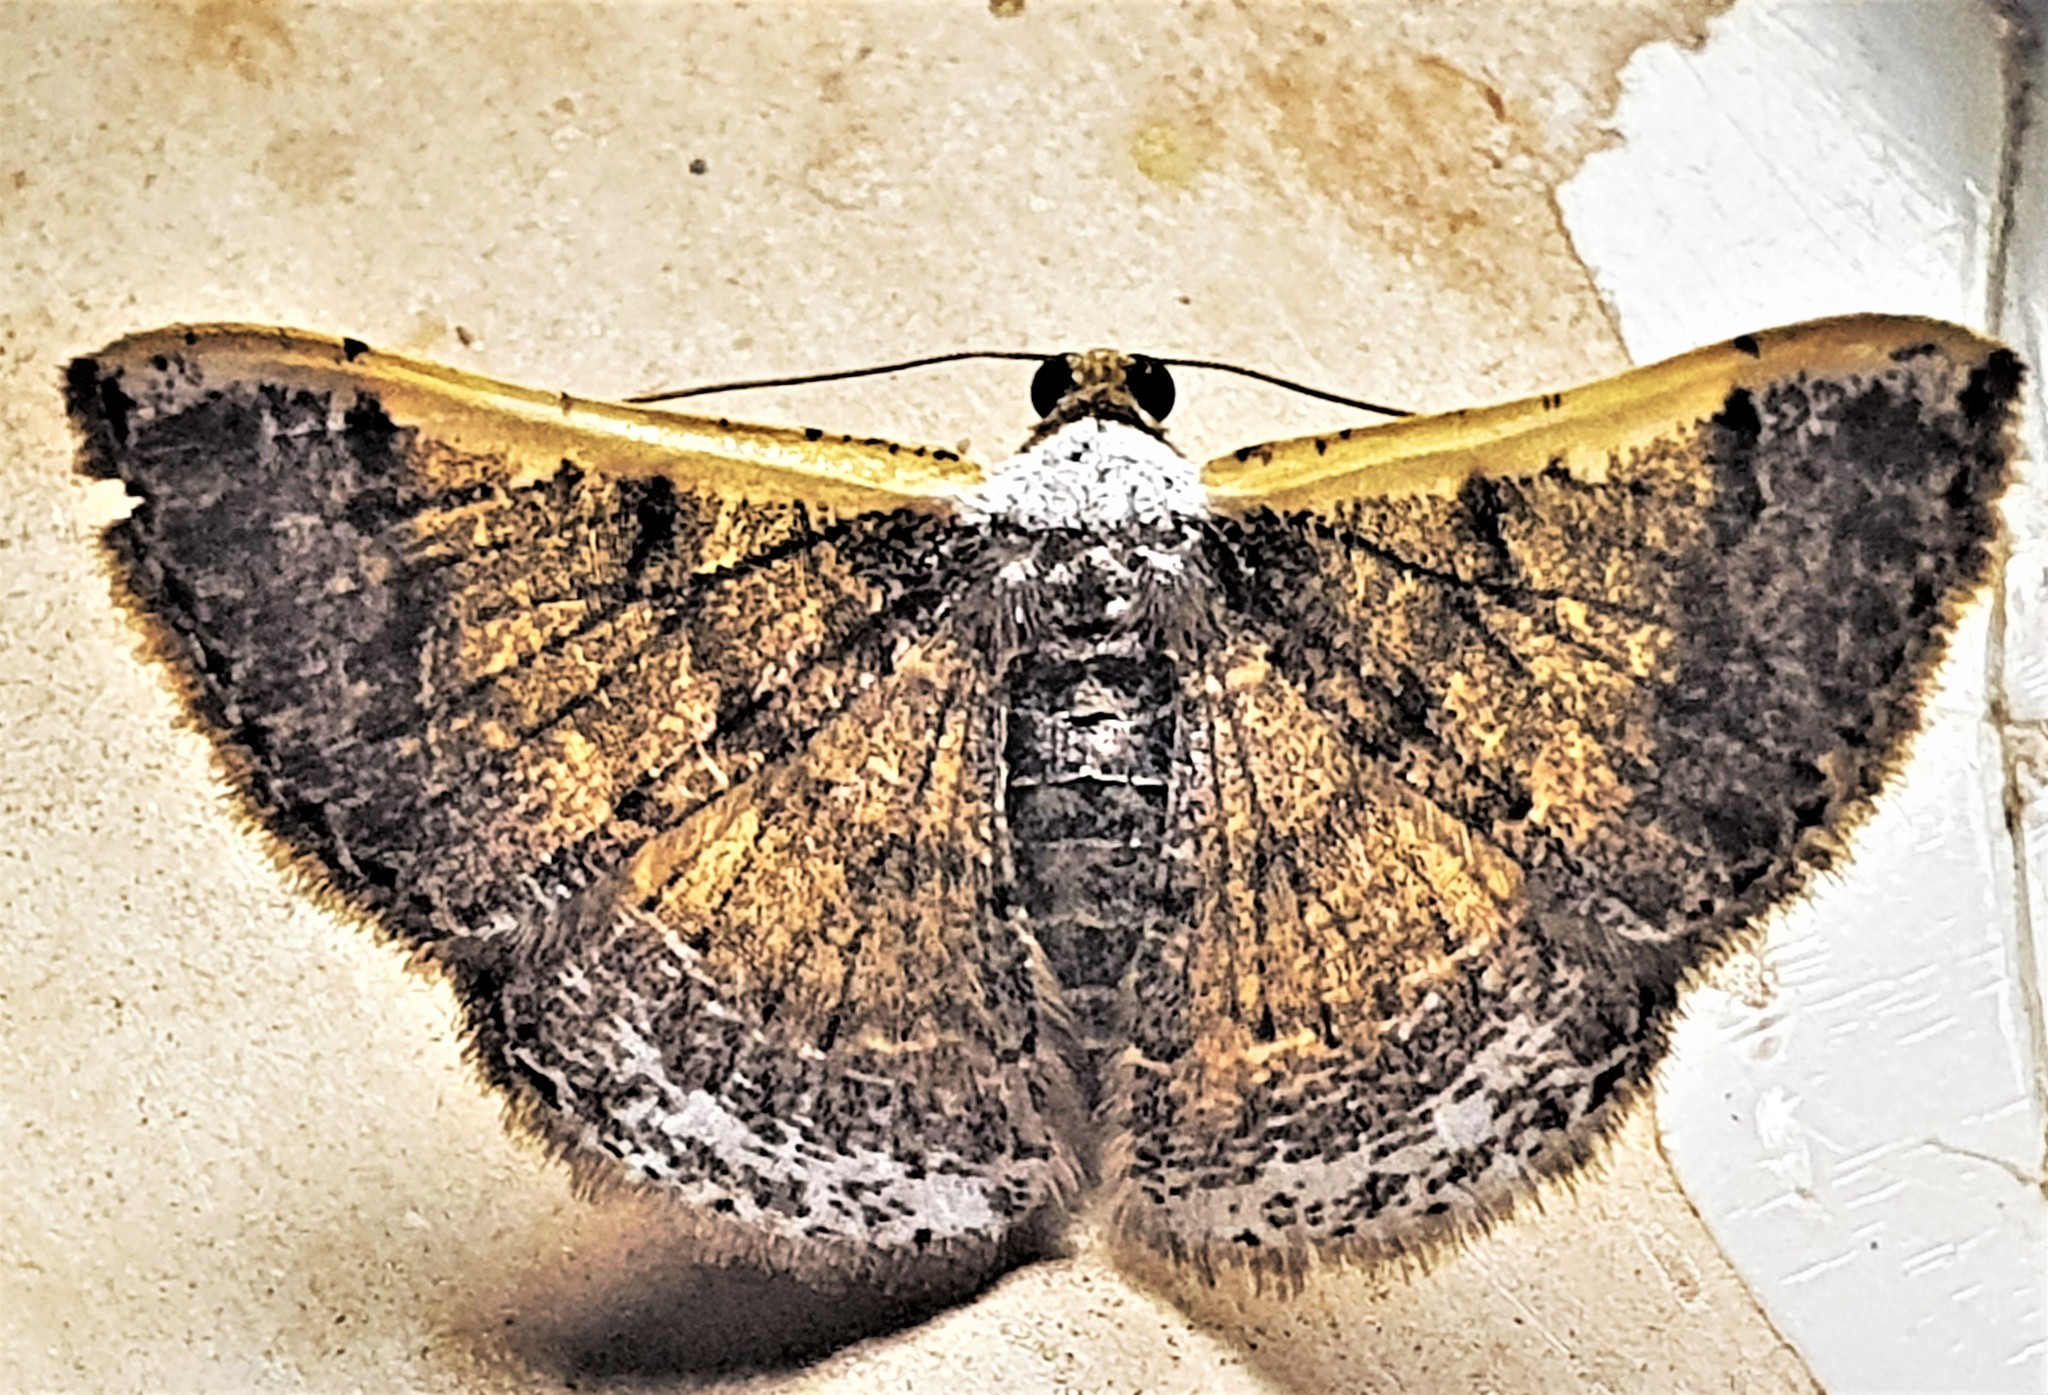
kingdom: Animalia
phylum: Arthropoda
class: Insecta
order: Lepidoptera
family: Geometridae
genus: Gyostega
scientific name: Gyostega tricristata
